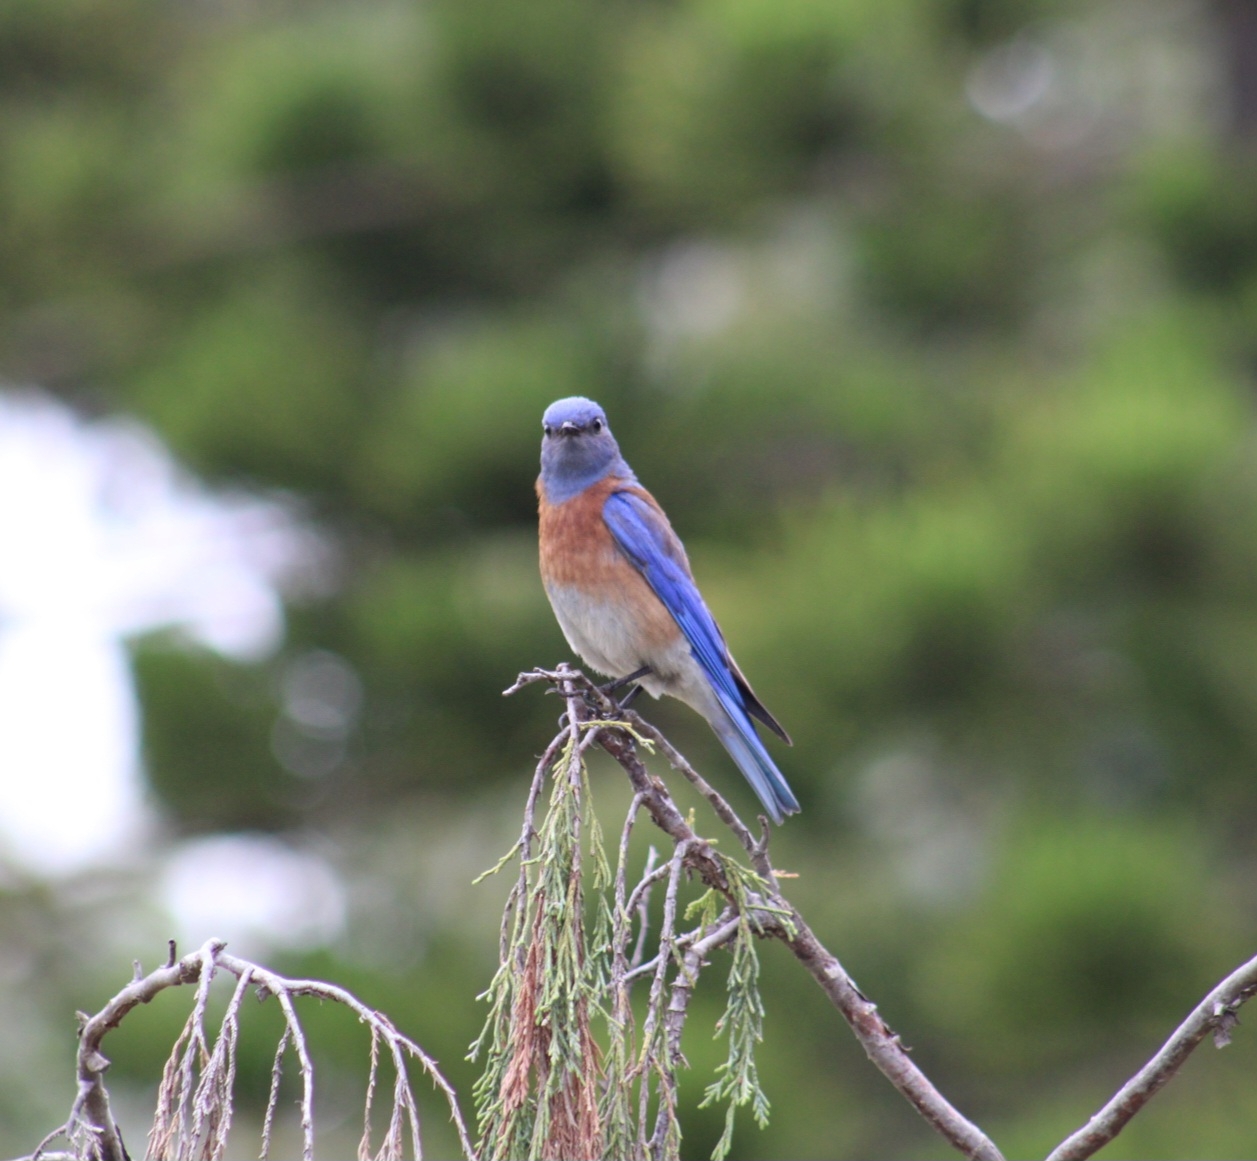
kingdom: Animalia
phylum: Chordata
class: Aves
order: Passeriformes
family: Turdidae
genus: Sialia
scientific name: Sialia mexicana
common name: Western bluebird
